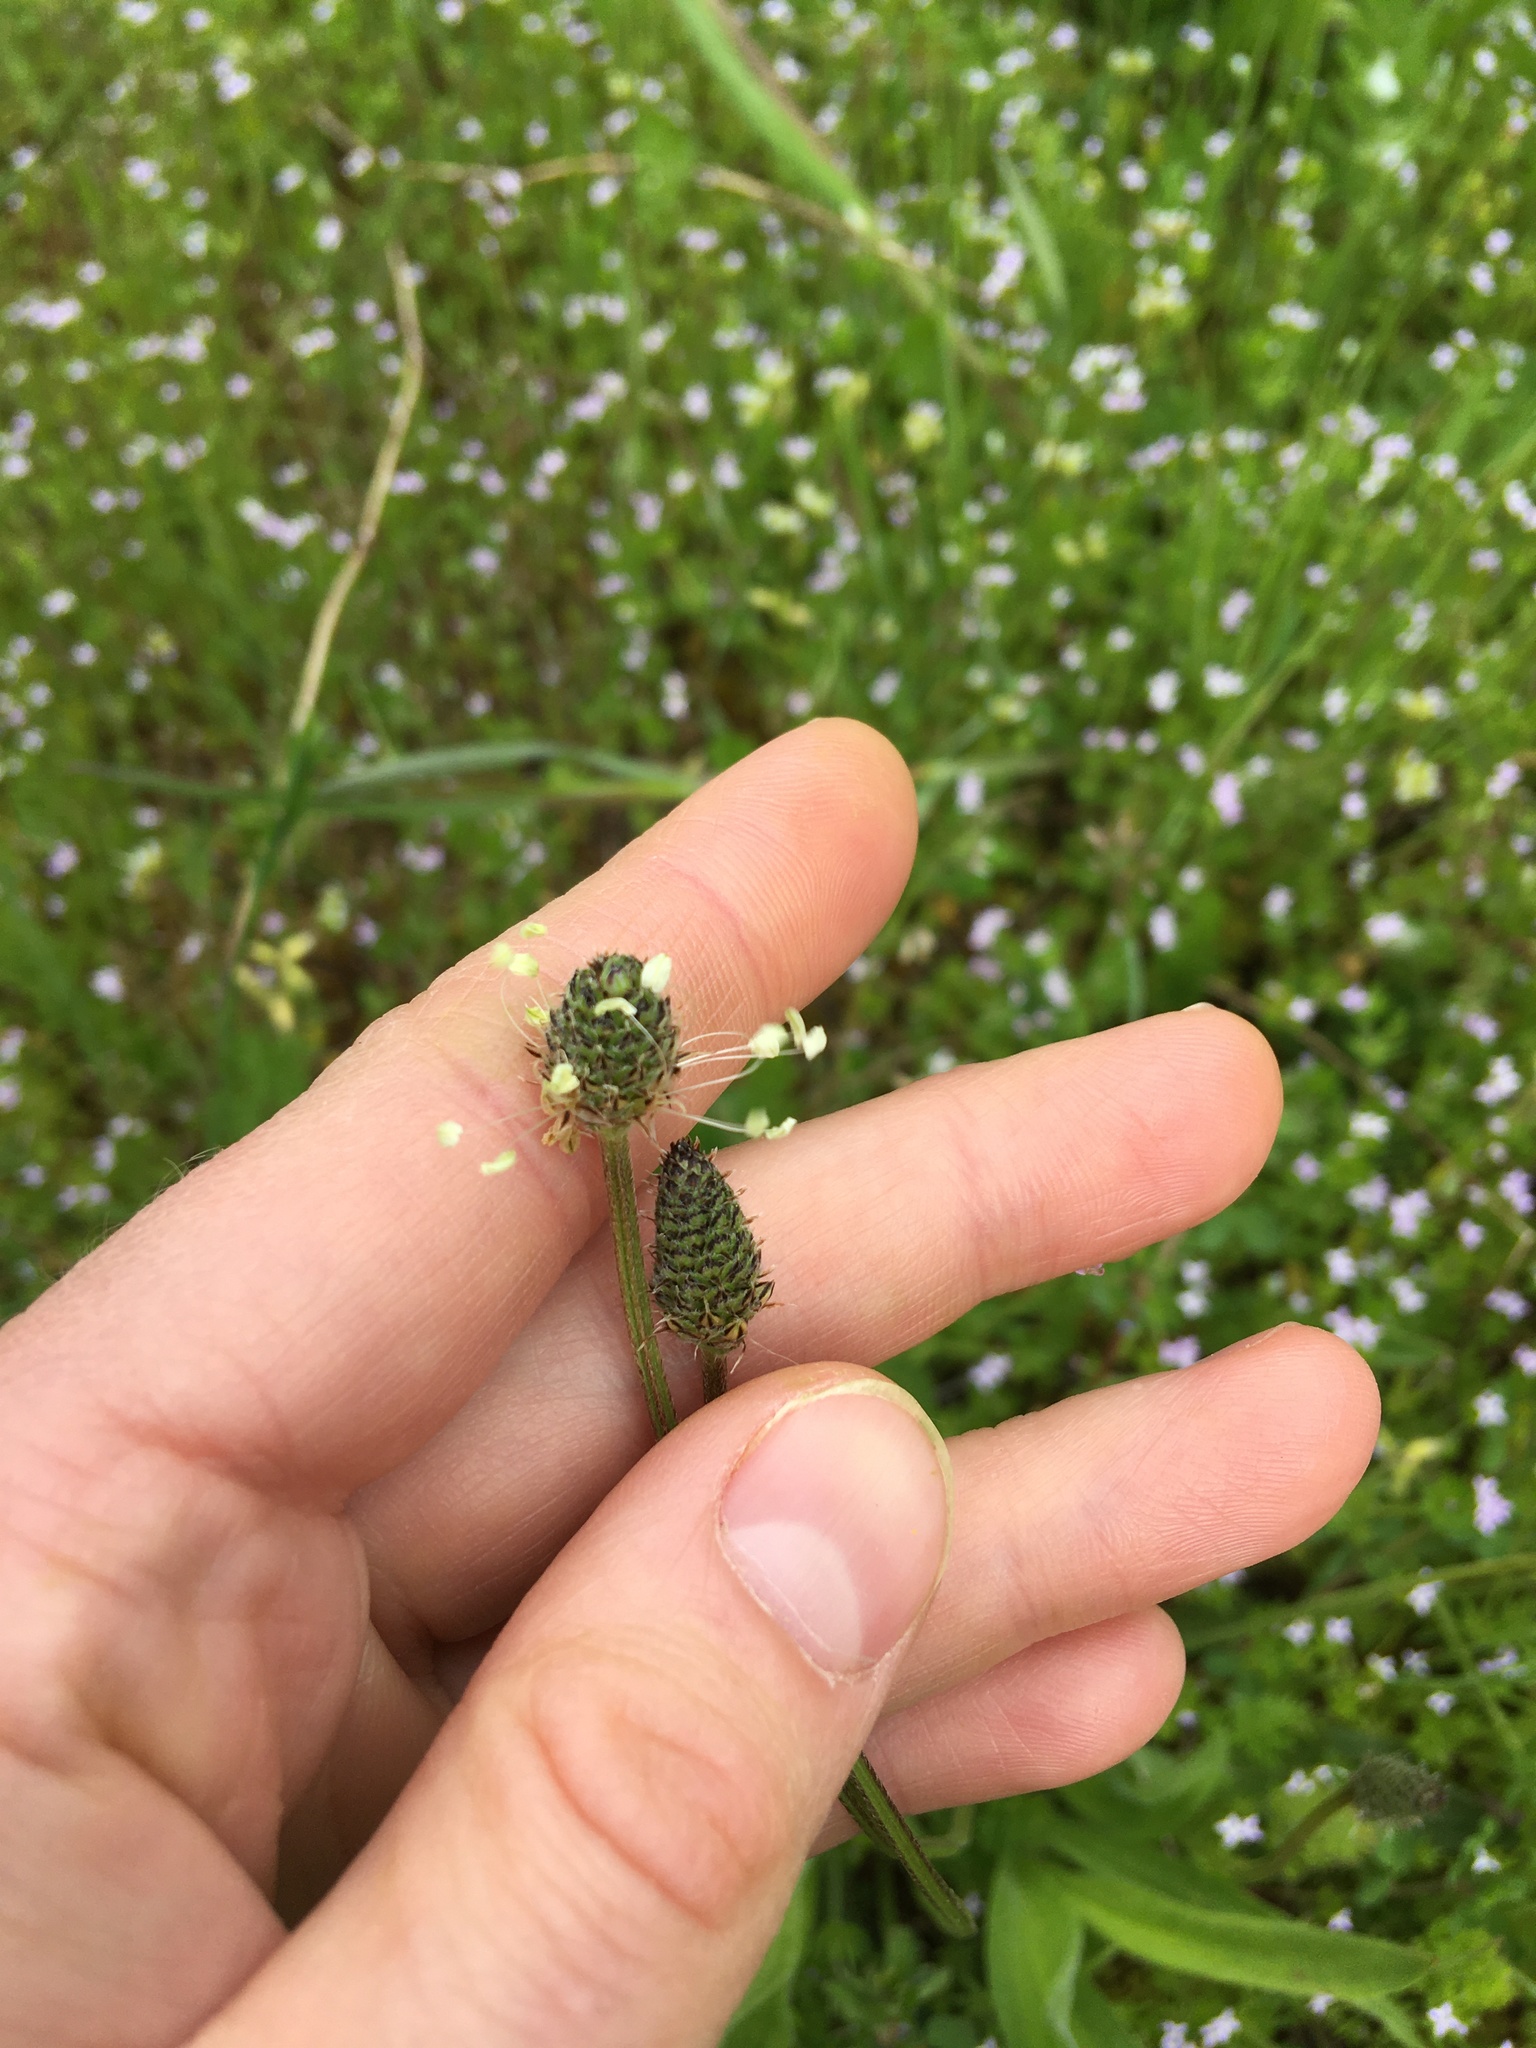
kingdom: Plantae
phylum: Tracheophyta
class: Magnoliopsida
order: Lamiales
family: Plantaginaceae
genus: Plantago
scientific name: Plantago lanceolata
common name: Ribwort plantain
